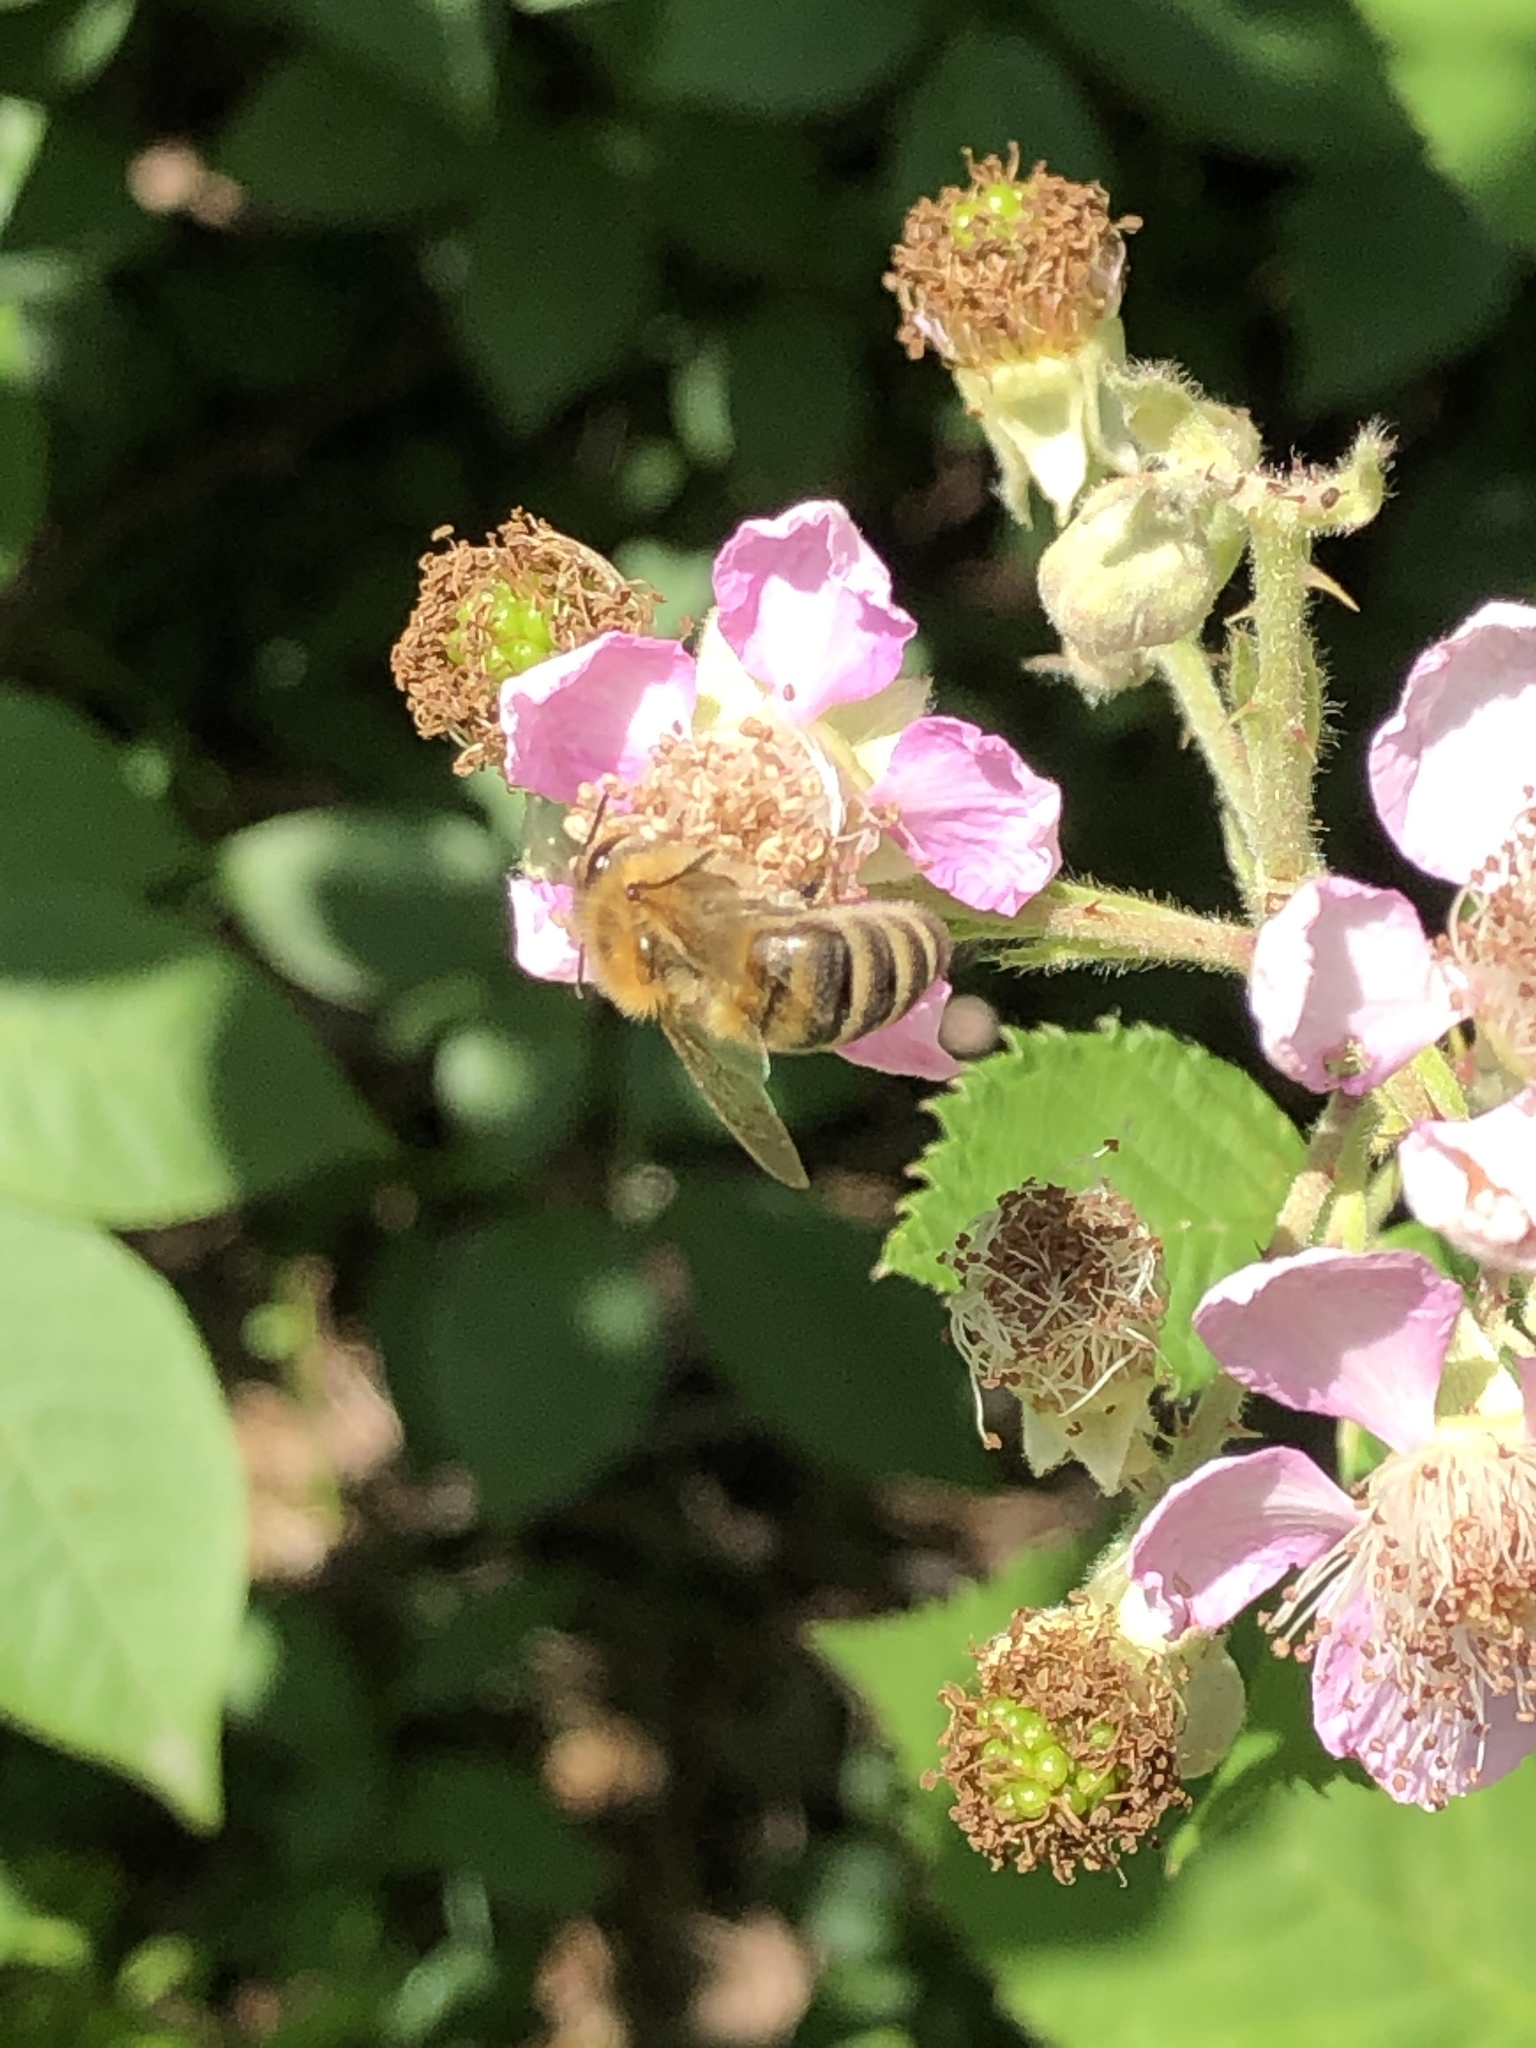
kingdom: Animalia
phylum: Arthropoda
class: Insecta
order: Hymenoptera
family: Apidae
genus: Apis
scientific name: Apis mellifera
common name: Honey bee
